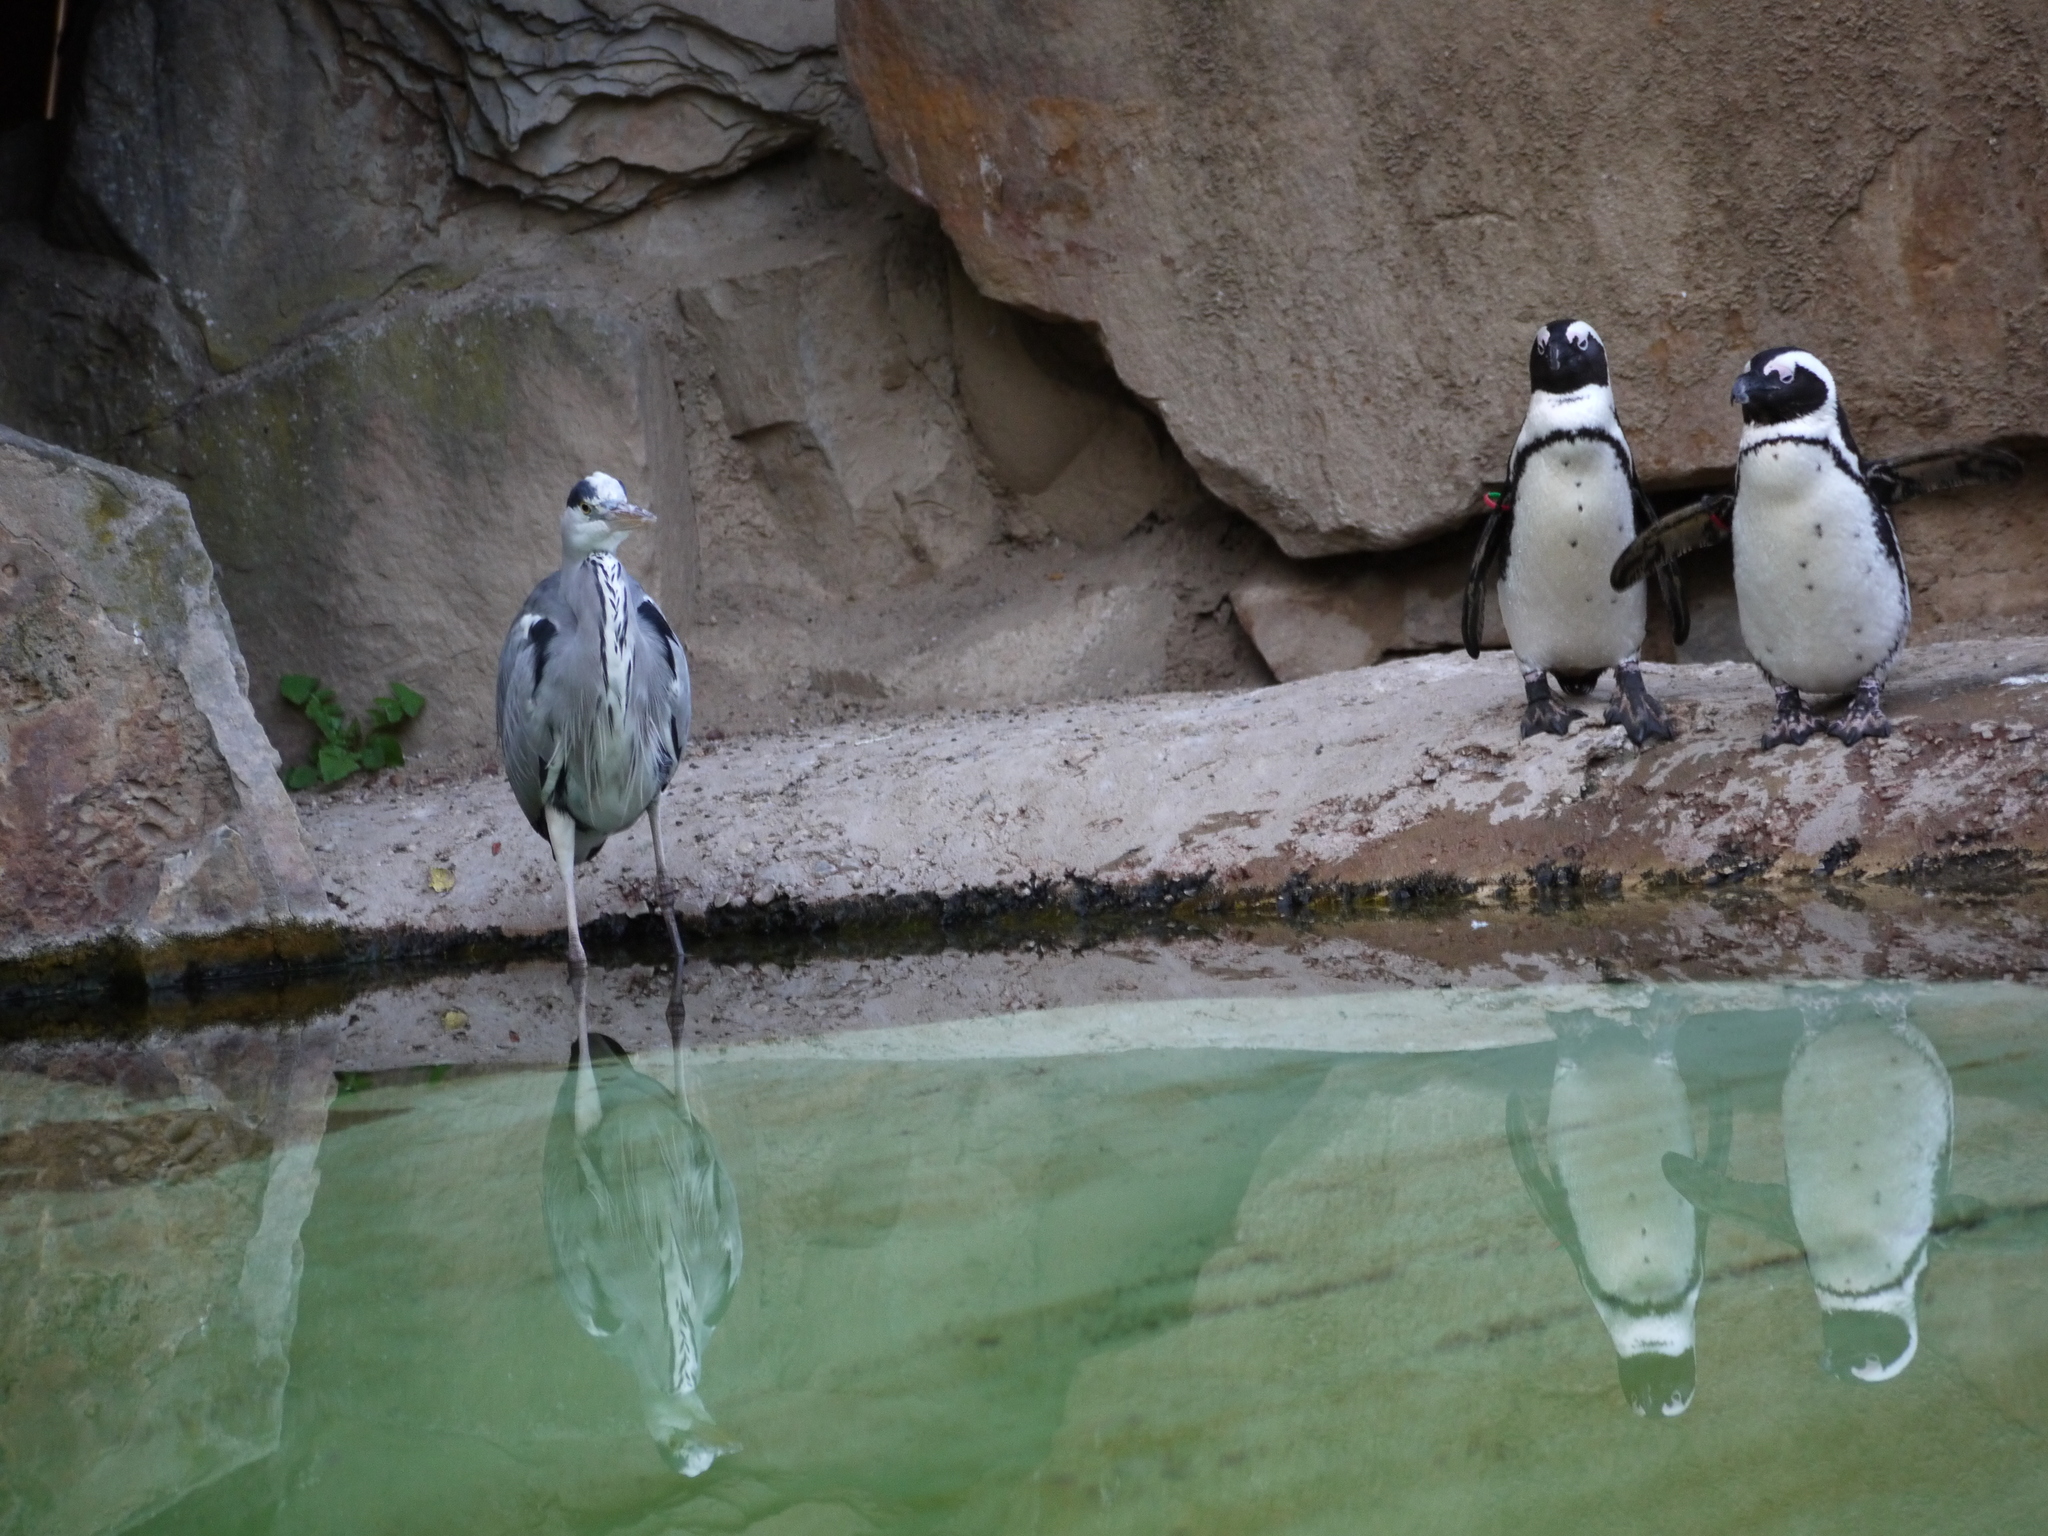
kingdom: Animalia
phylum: Chordata
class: Aves
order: Pelecaniformes
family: Ardeidae
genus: Ardea
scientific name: Ardea cinerea
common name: Grey heron
